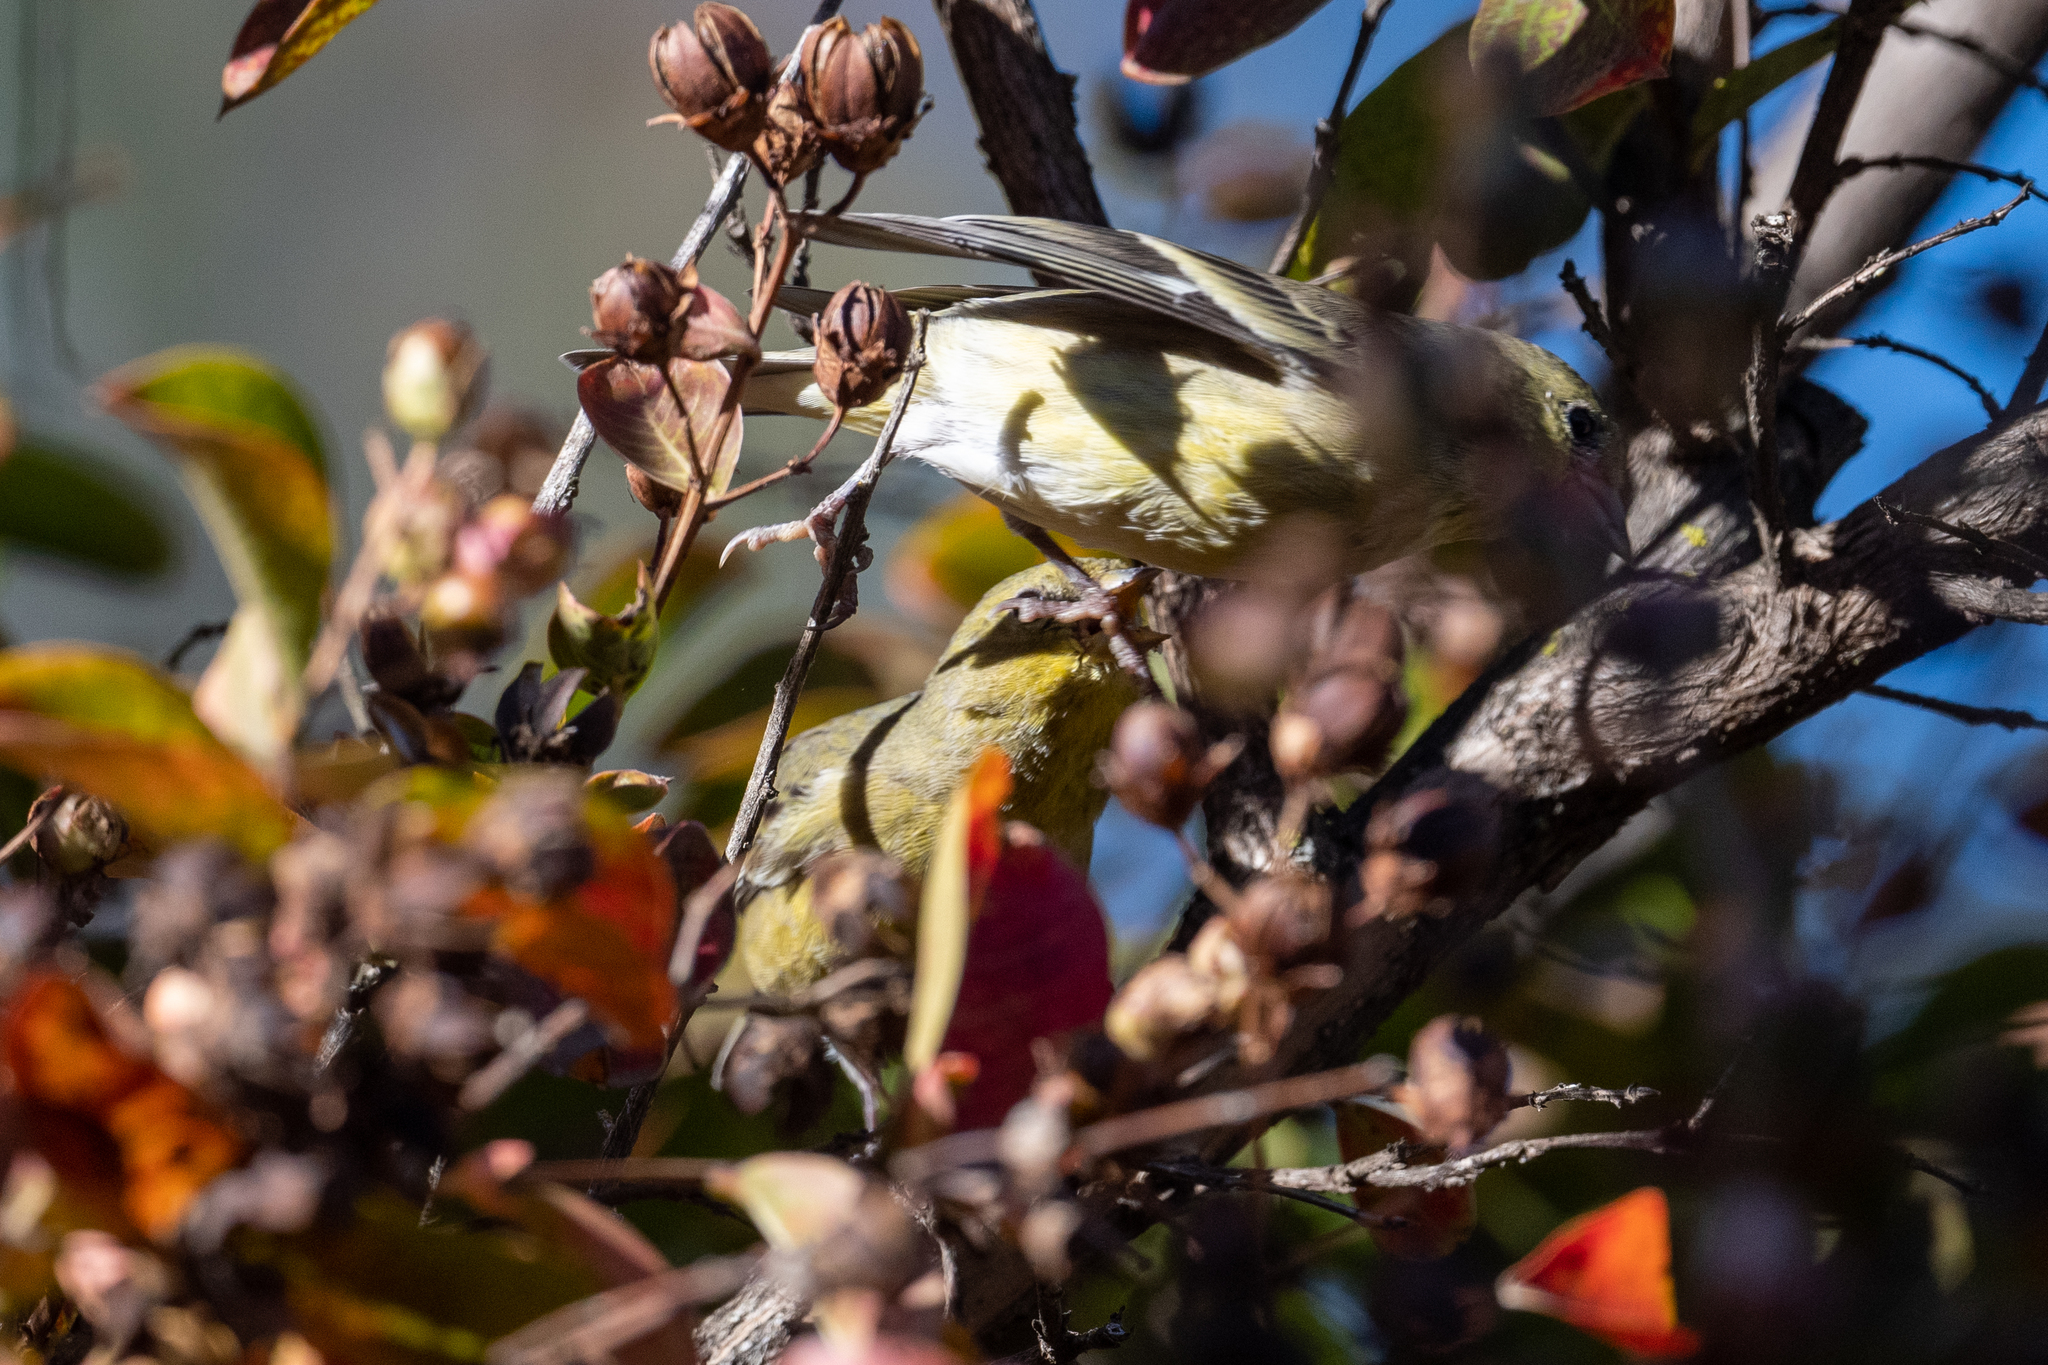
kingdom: Animalia
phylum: Chordata
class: Aves
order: Passeriformes
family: Fringillidae
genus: Spinus
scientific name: Spinus psaltria
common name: Lesser goldfinch
